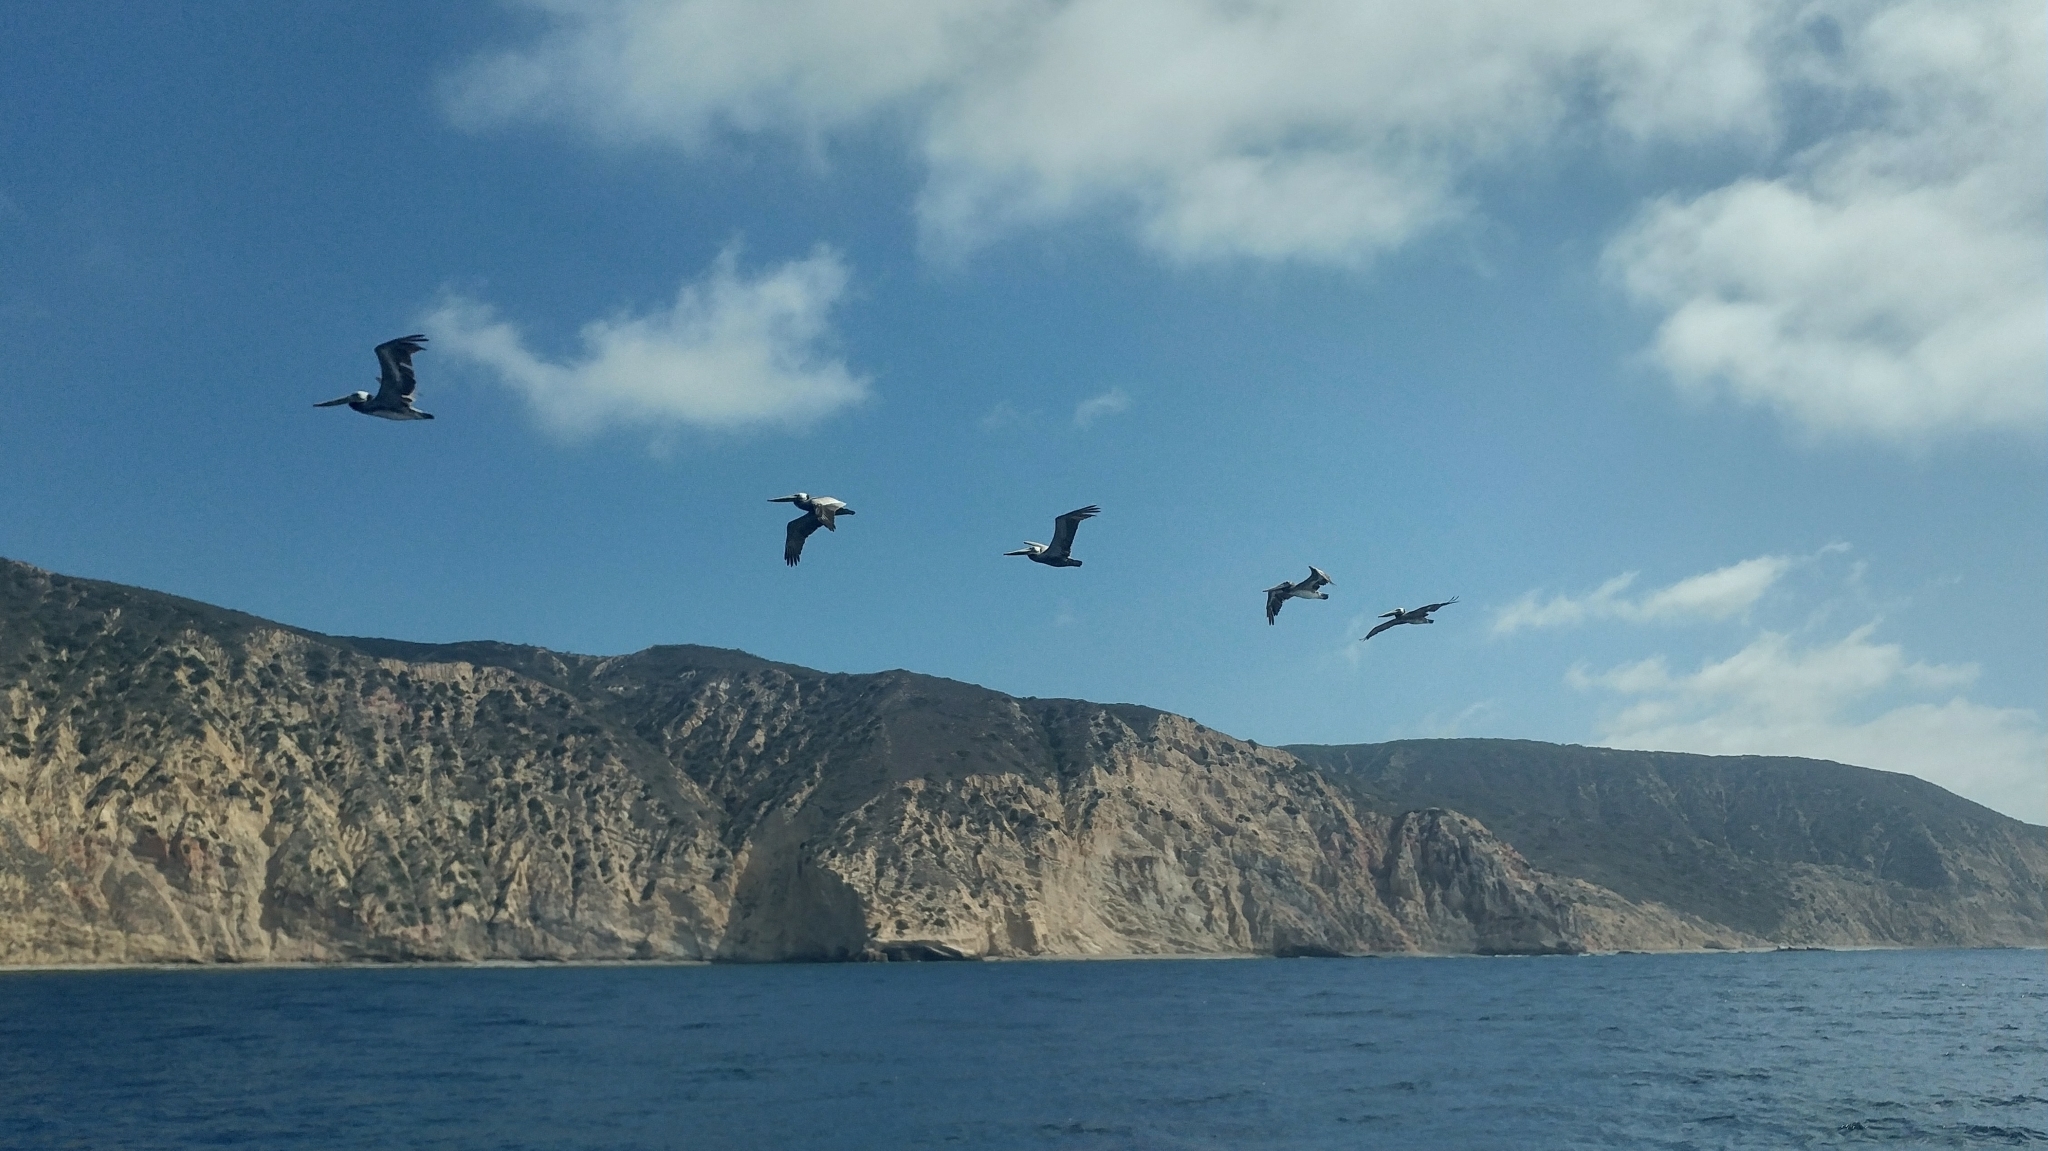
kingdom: Animalia
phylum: Chordata
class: Aves
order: Pelecaniformes
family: Pelecanidae
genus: Pelecanus
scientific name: Pelecanus occidentalis
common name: Brown pelican
